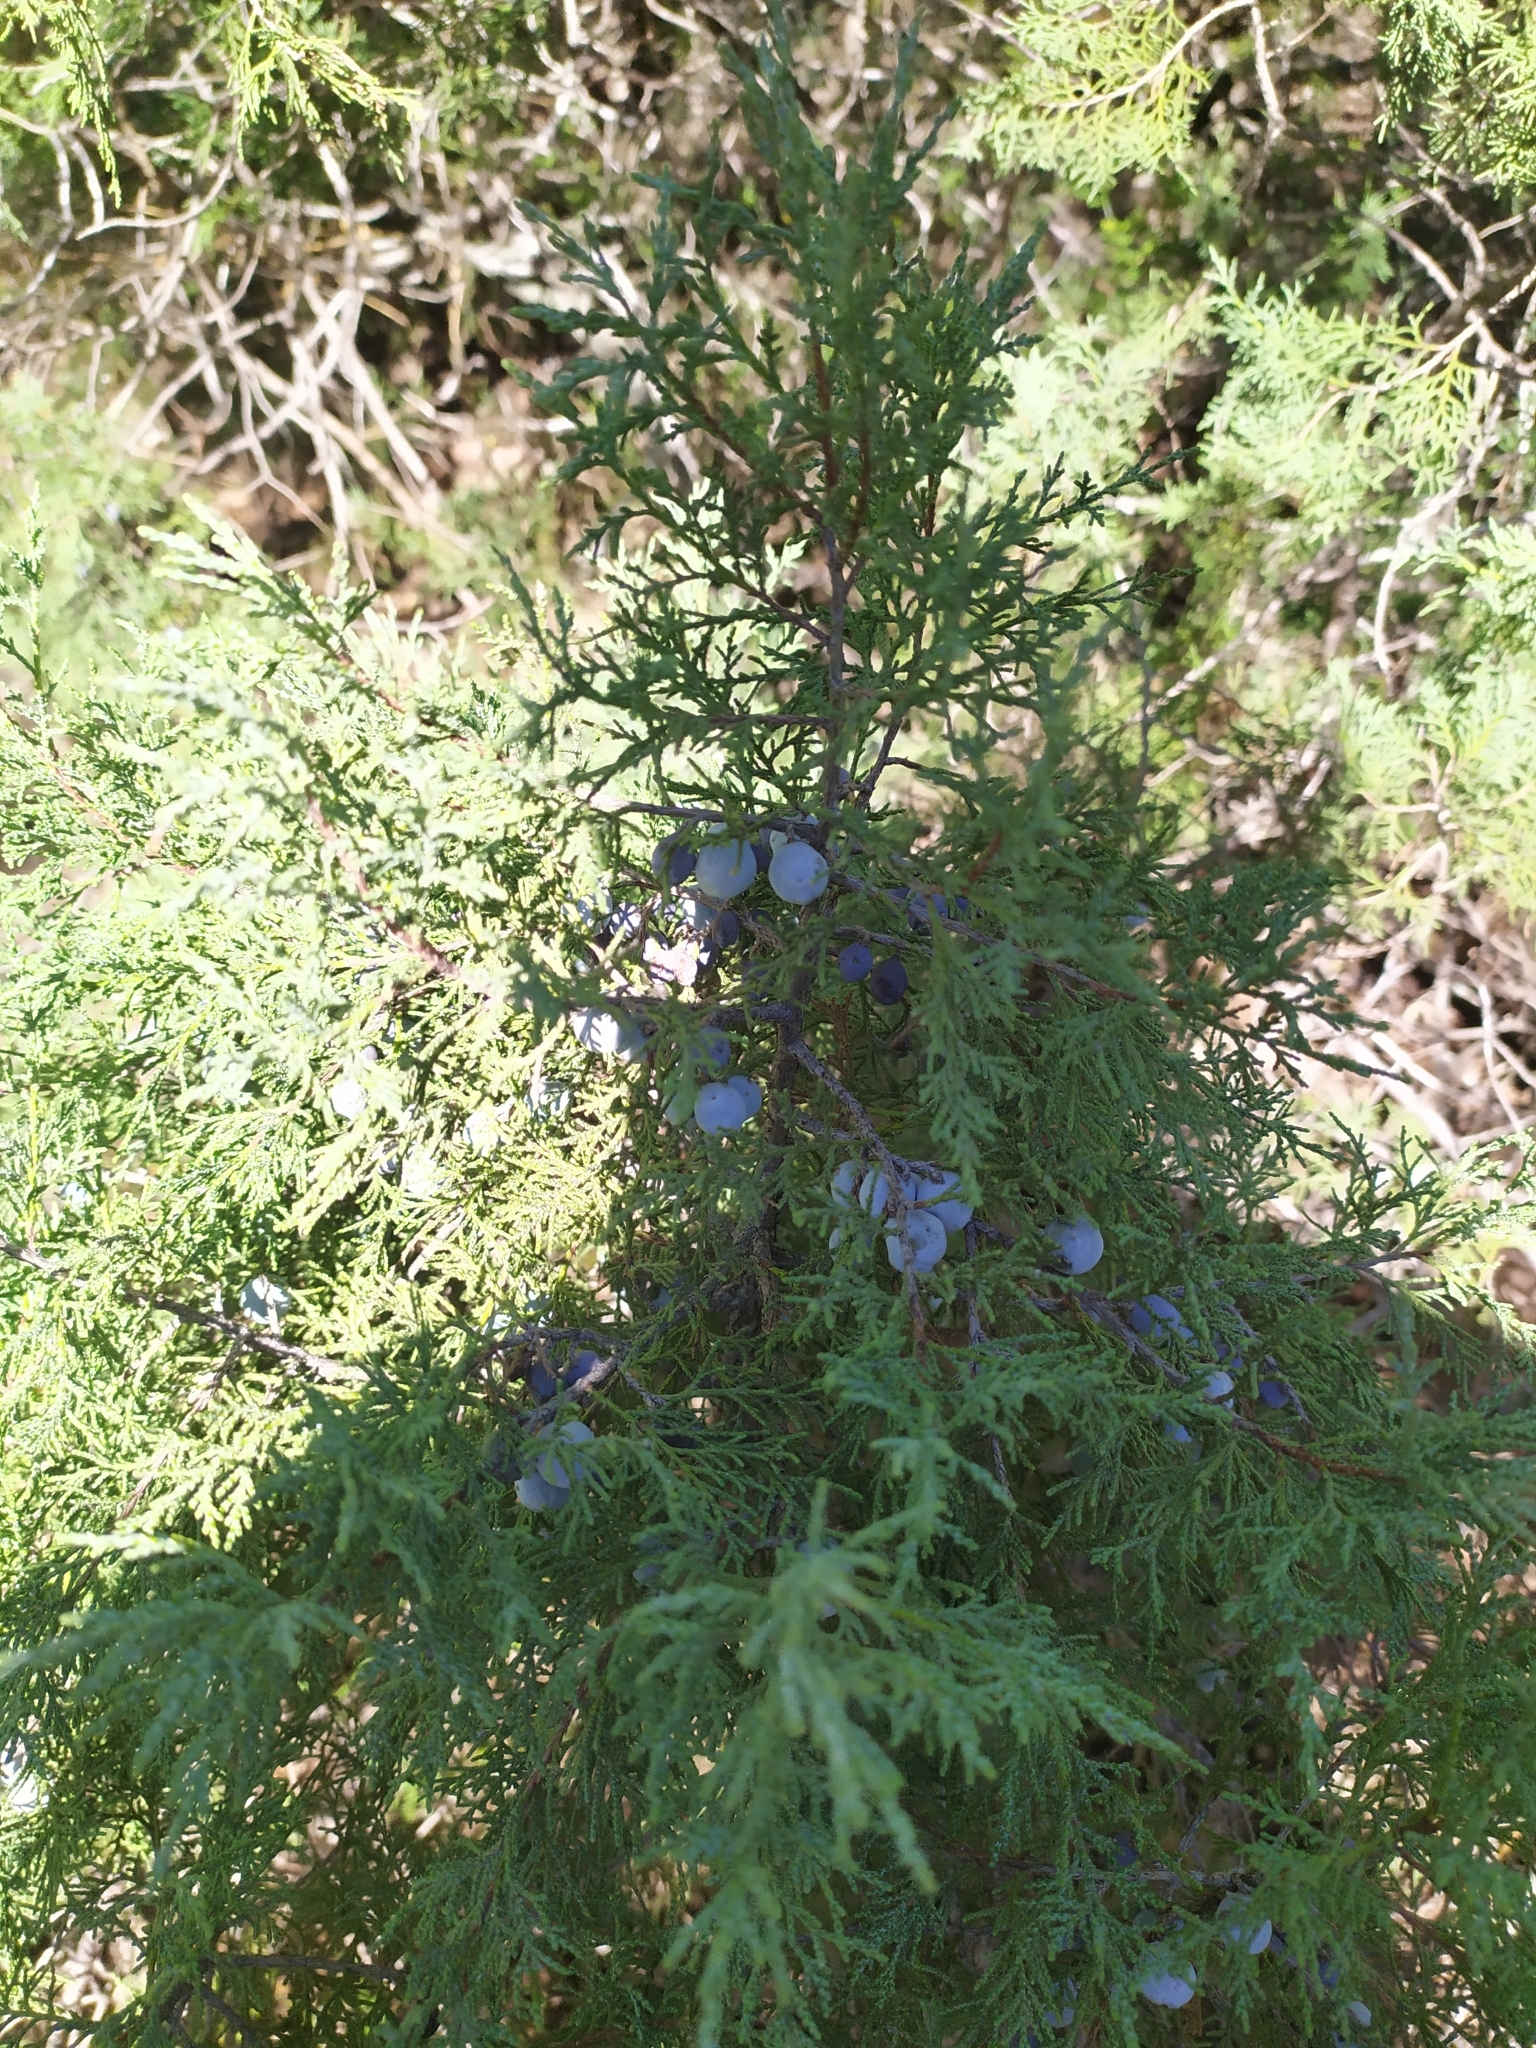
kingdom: Plantae
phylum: Tracheophyta
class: Pinopsida
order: Pinales
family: Cupressaceae
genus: Juniperus
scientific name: Juniperus excelsa
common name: Crimean juniper
